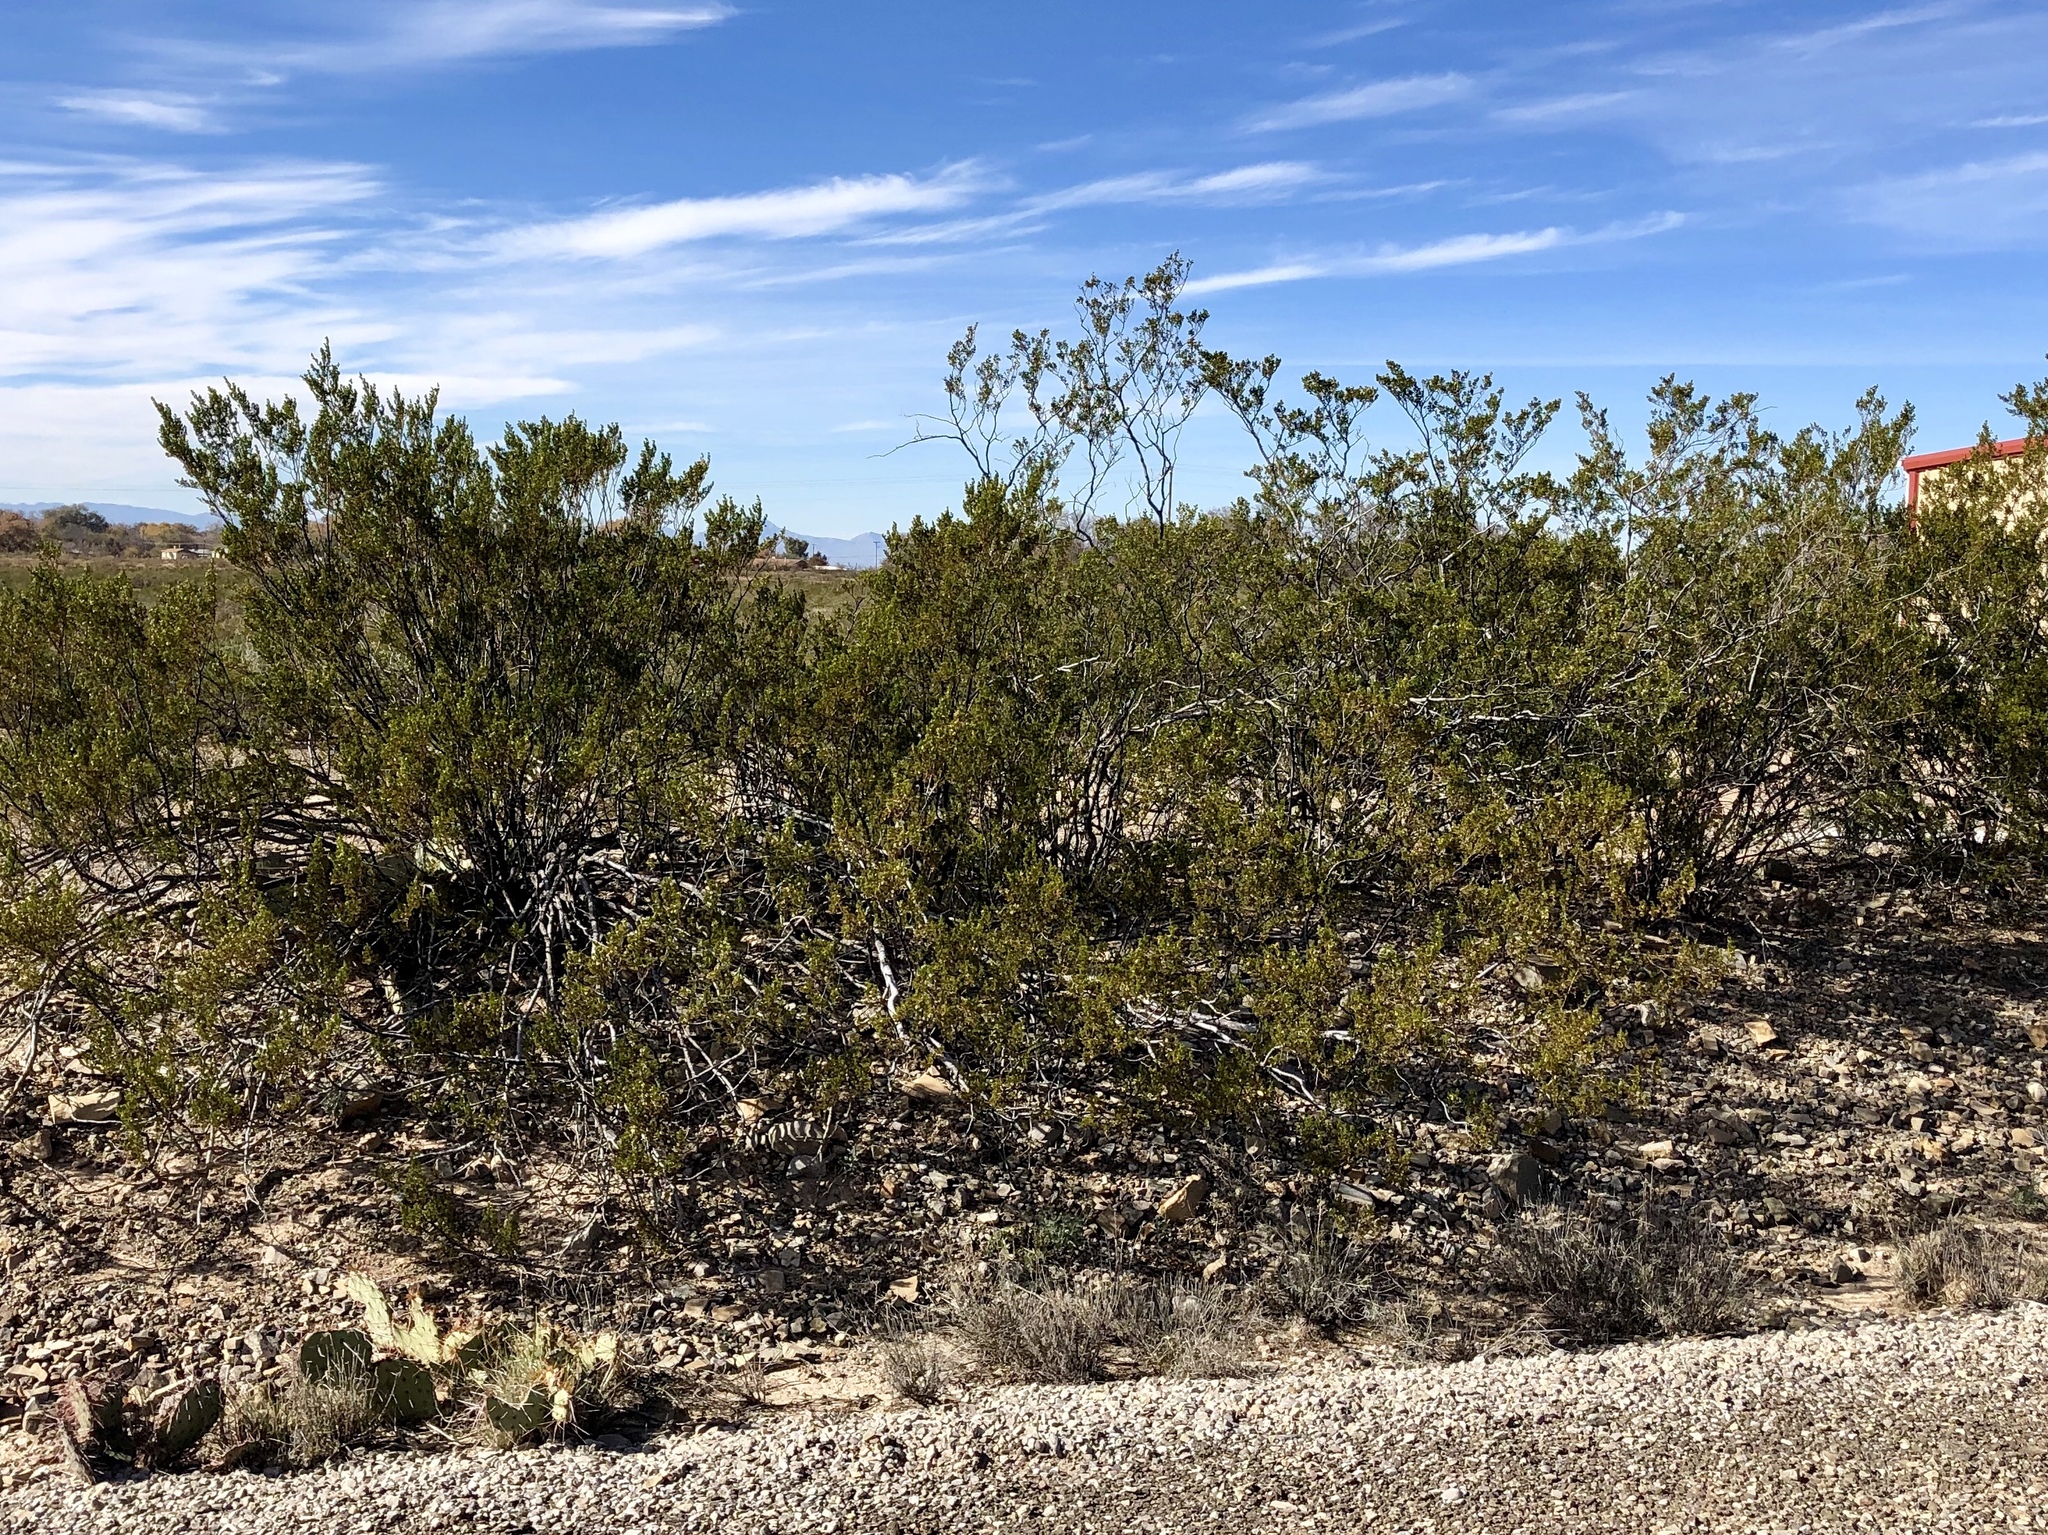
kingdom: Plantae
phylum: Tracheophyta
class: Magnoliopsida
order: Zygophyllales
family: Zygophyllaceae
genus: Larrea
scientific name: Larrea tridentata
